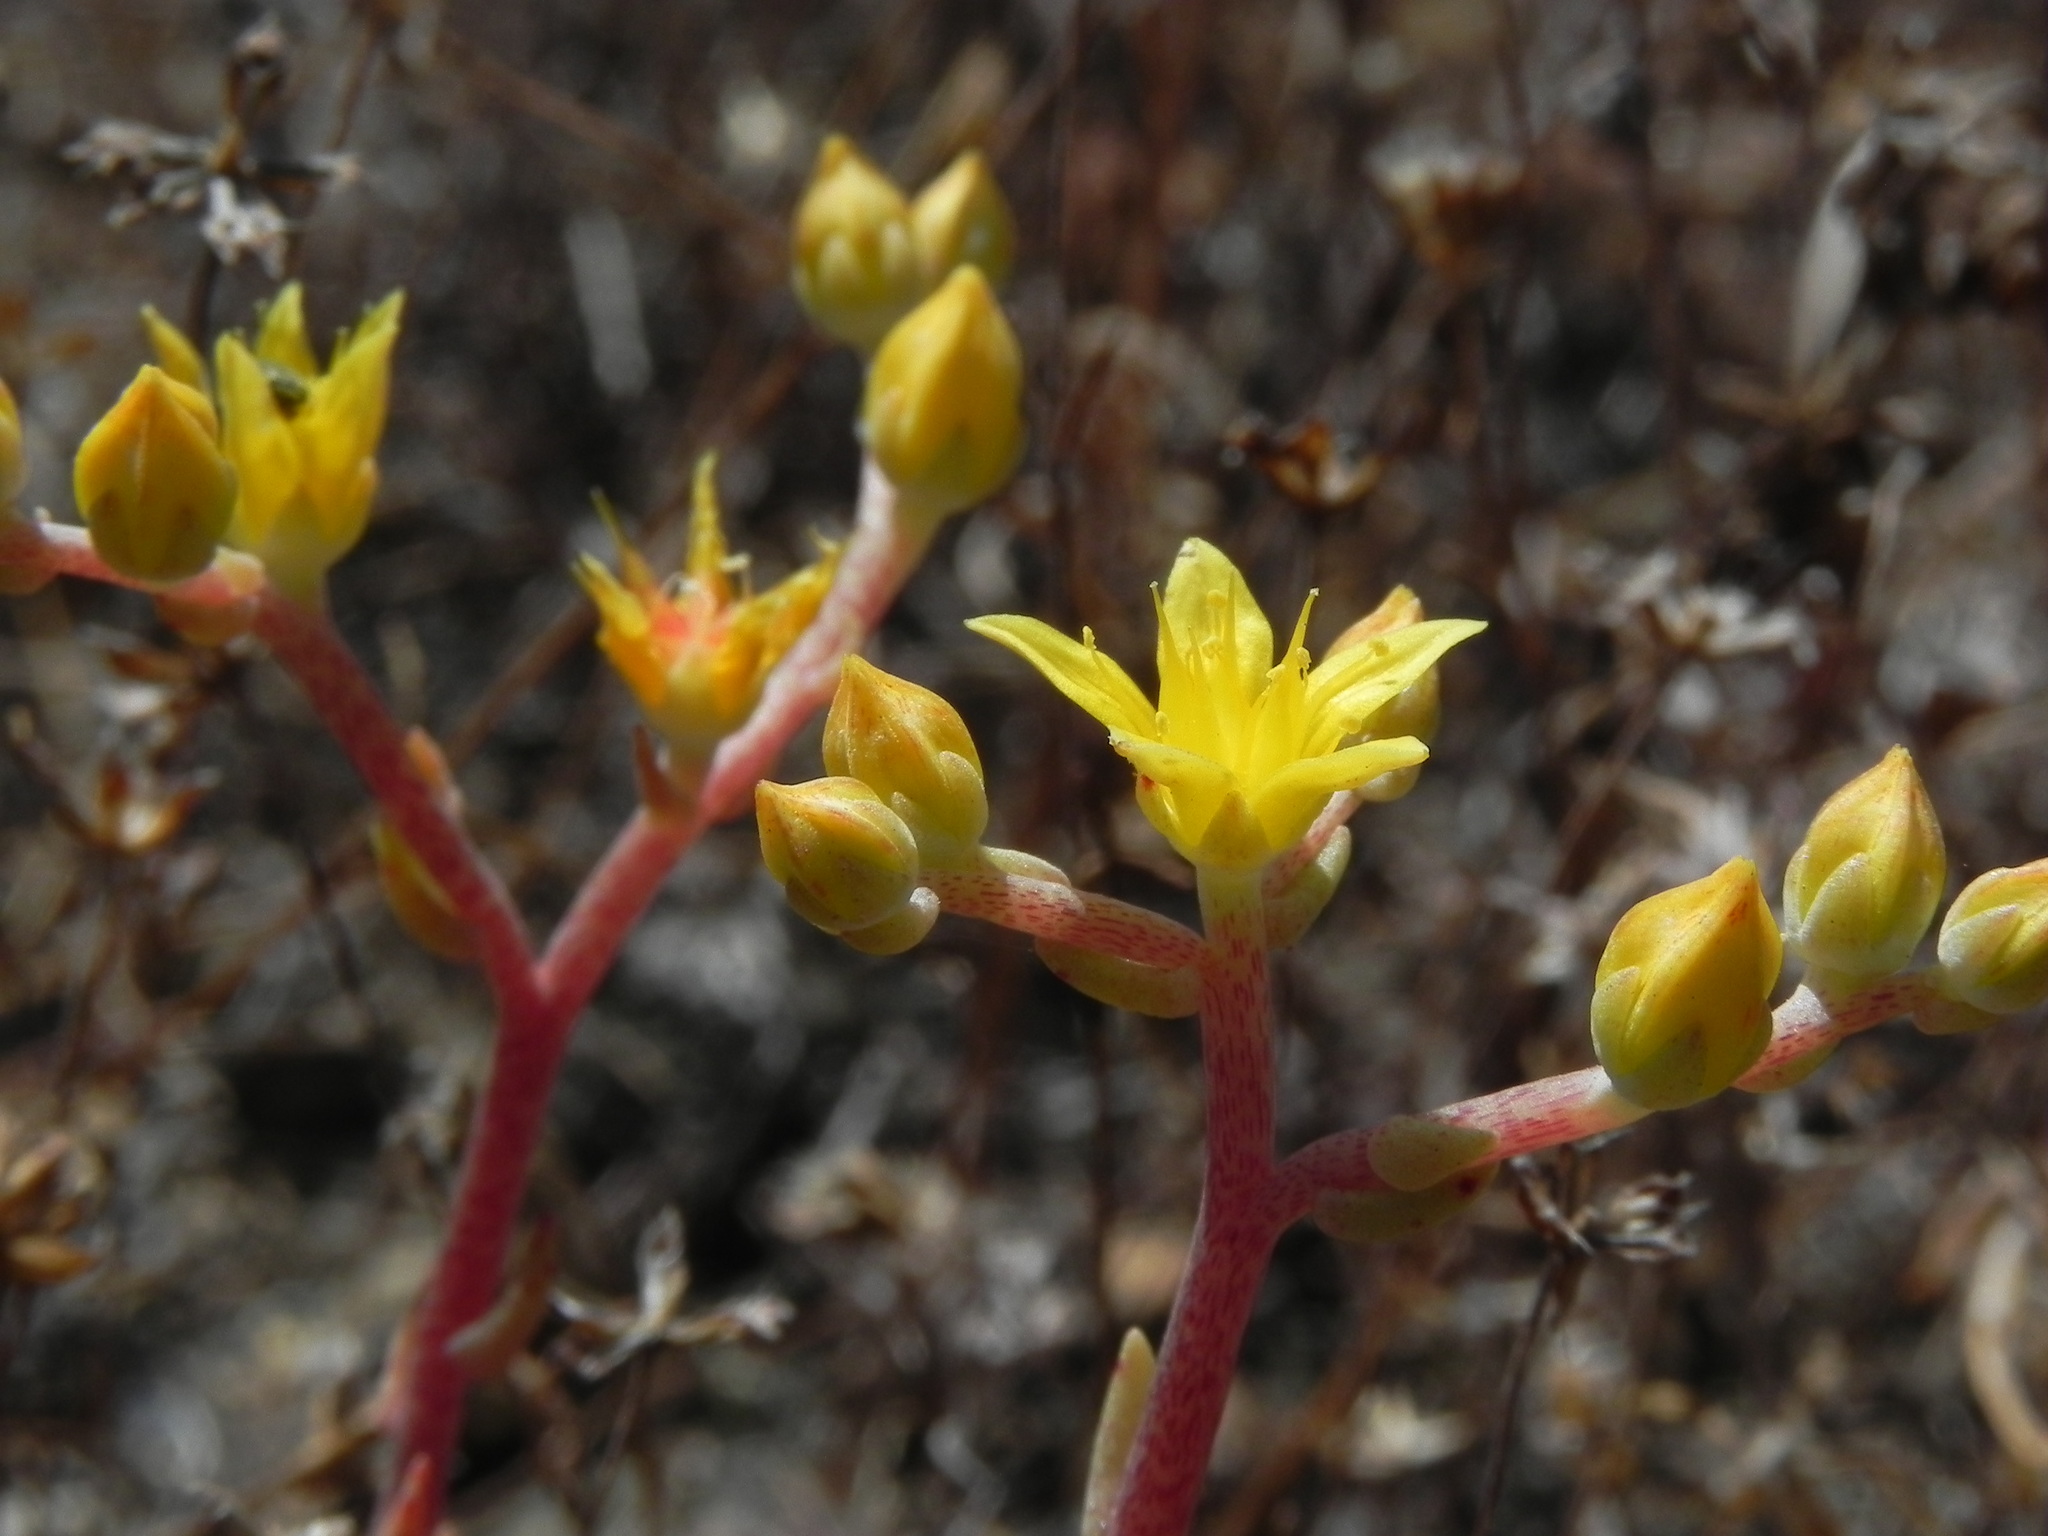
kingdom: Plantae
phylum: Tracheophyta
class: Magnoliopsida
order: Saxifragales
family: Crassulaceae
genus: Dudleya
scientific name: Dudleya variegata
